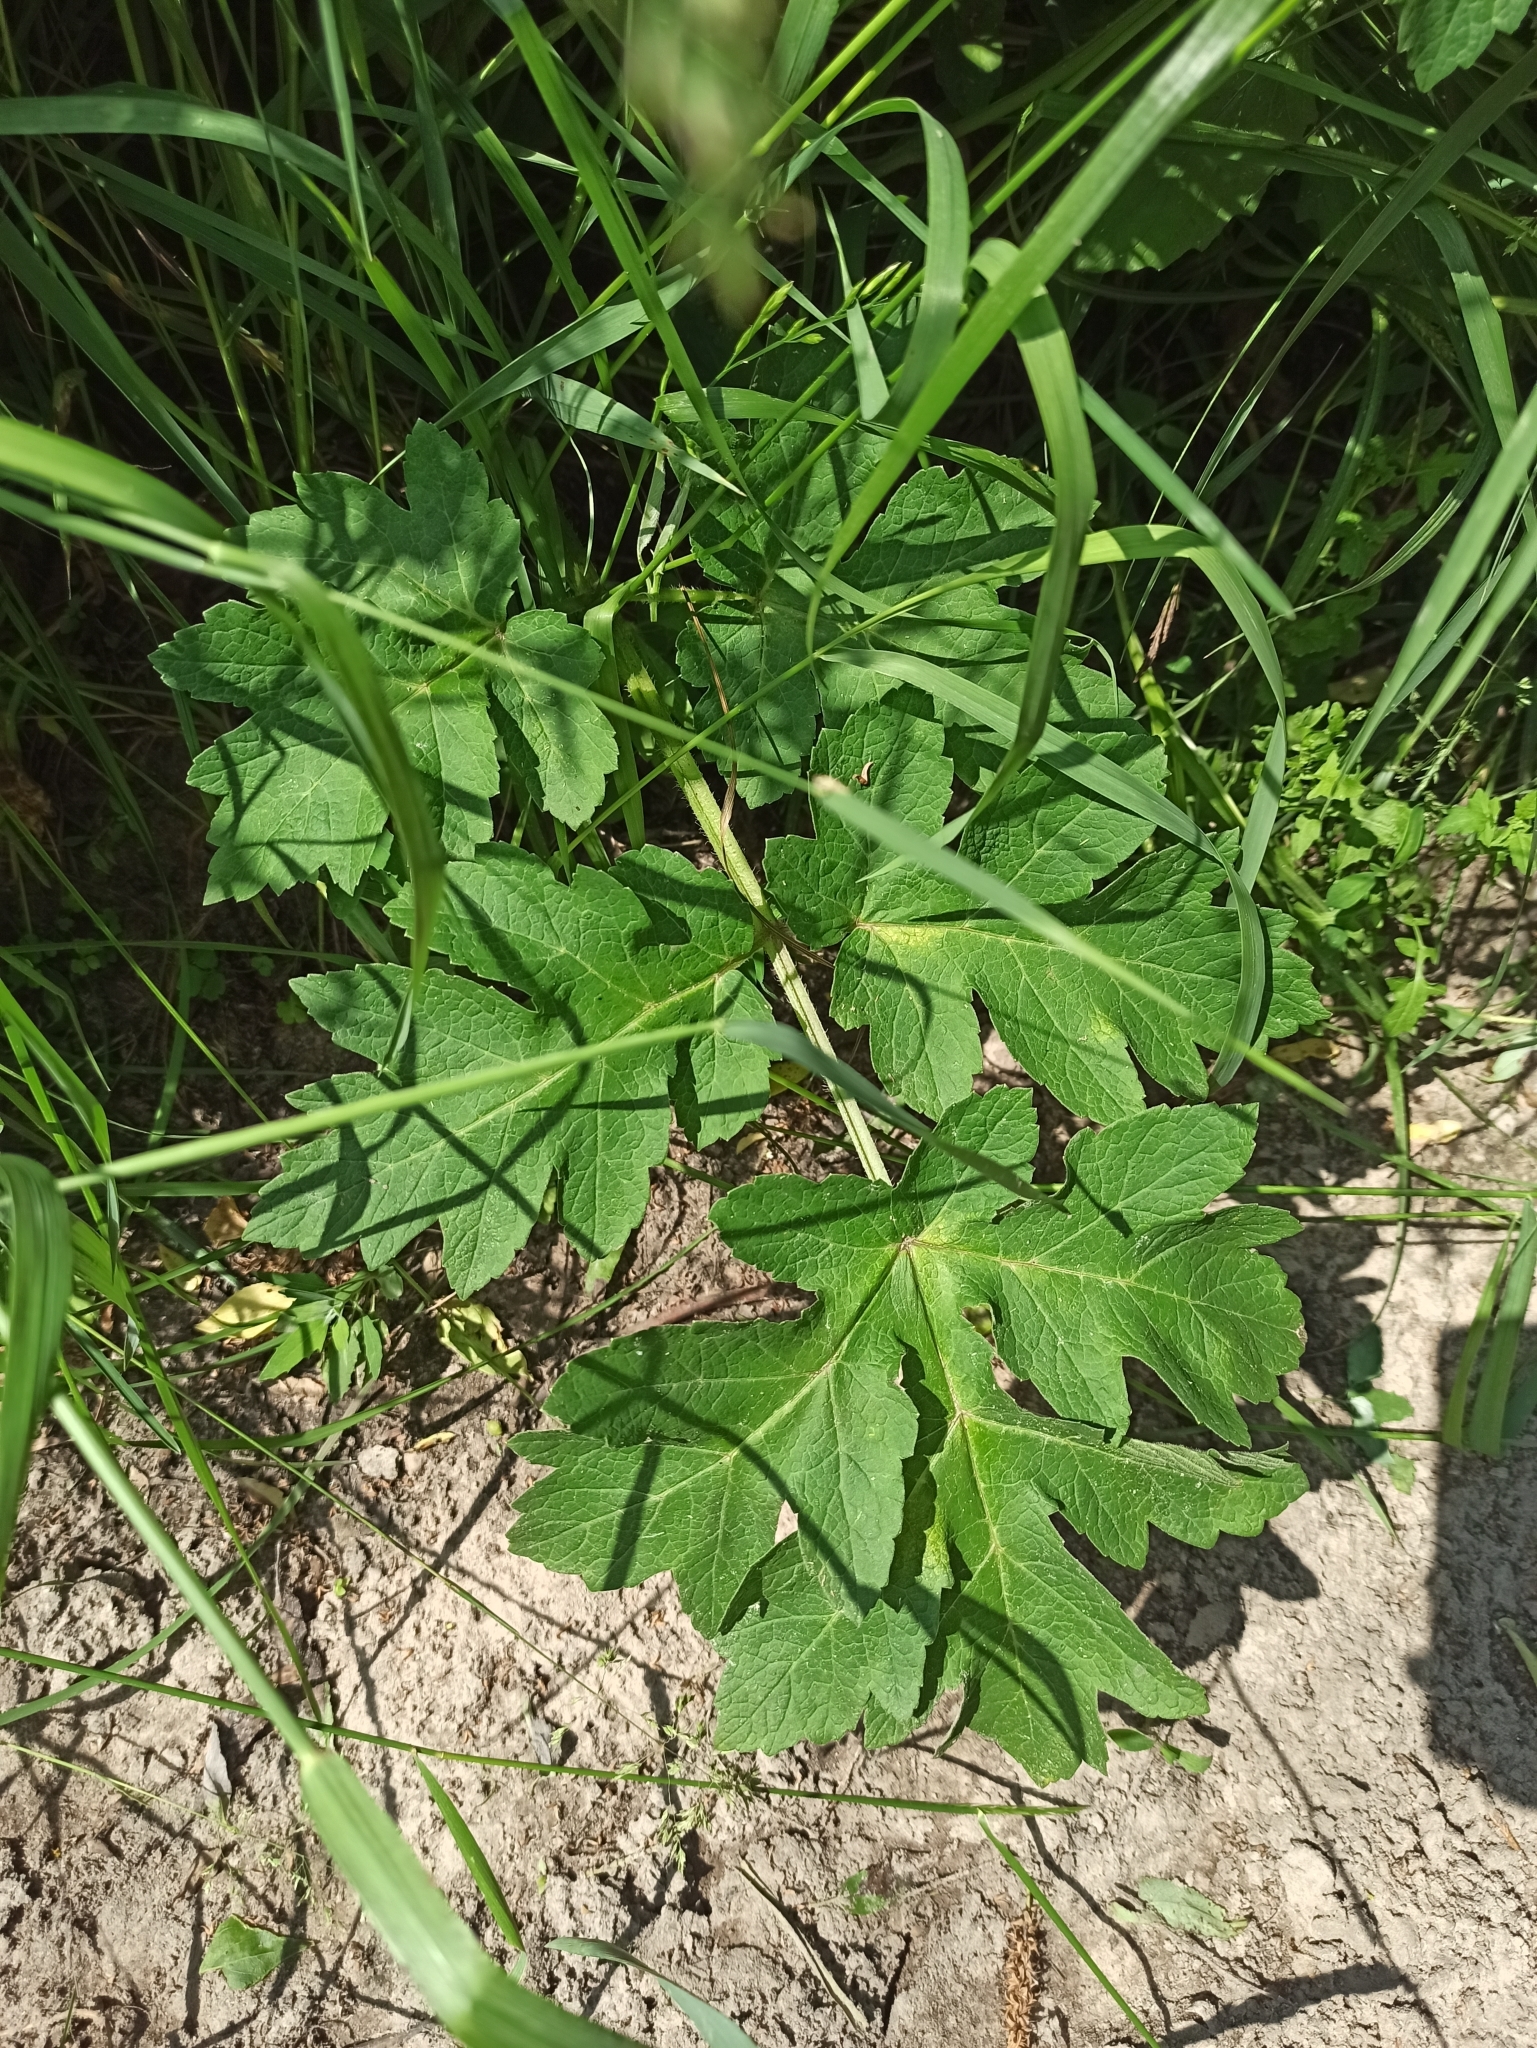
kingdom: Plantae
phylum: Tracheophyta
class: Magnoliopsida
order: Apiales
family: Apiaceae
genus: Heracleum
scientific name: Heracleum sphondylium
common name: Hogweed
